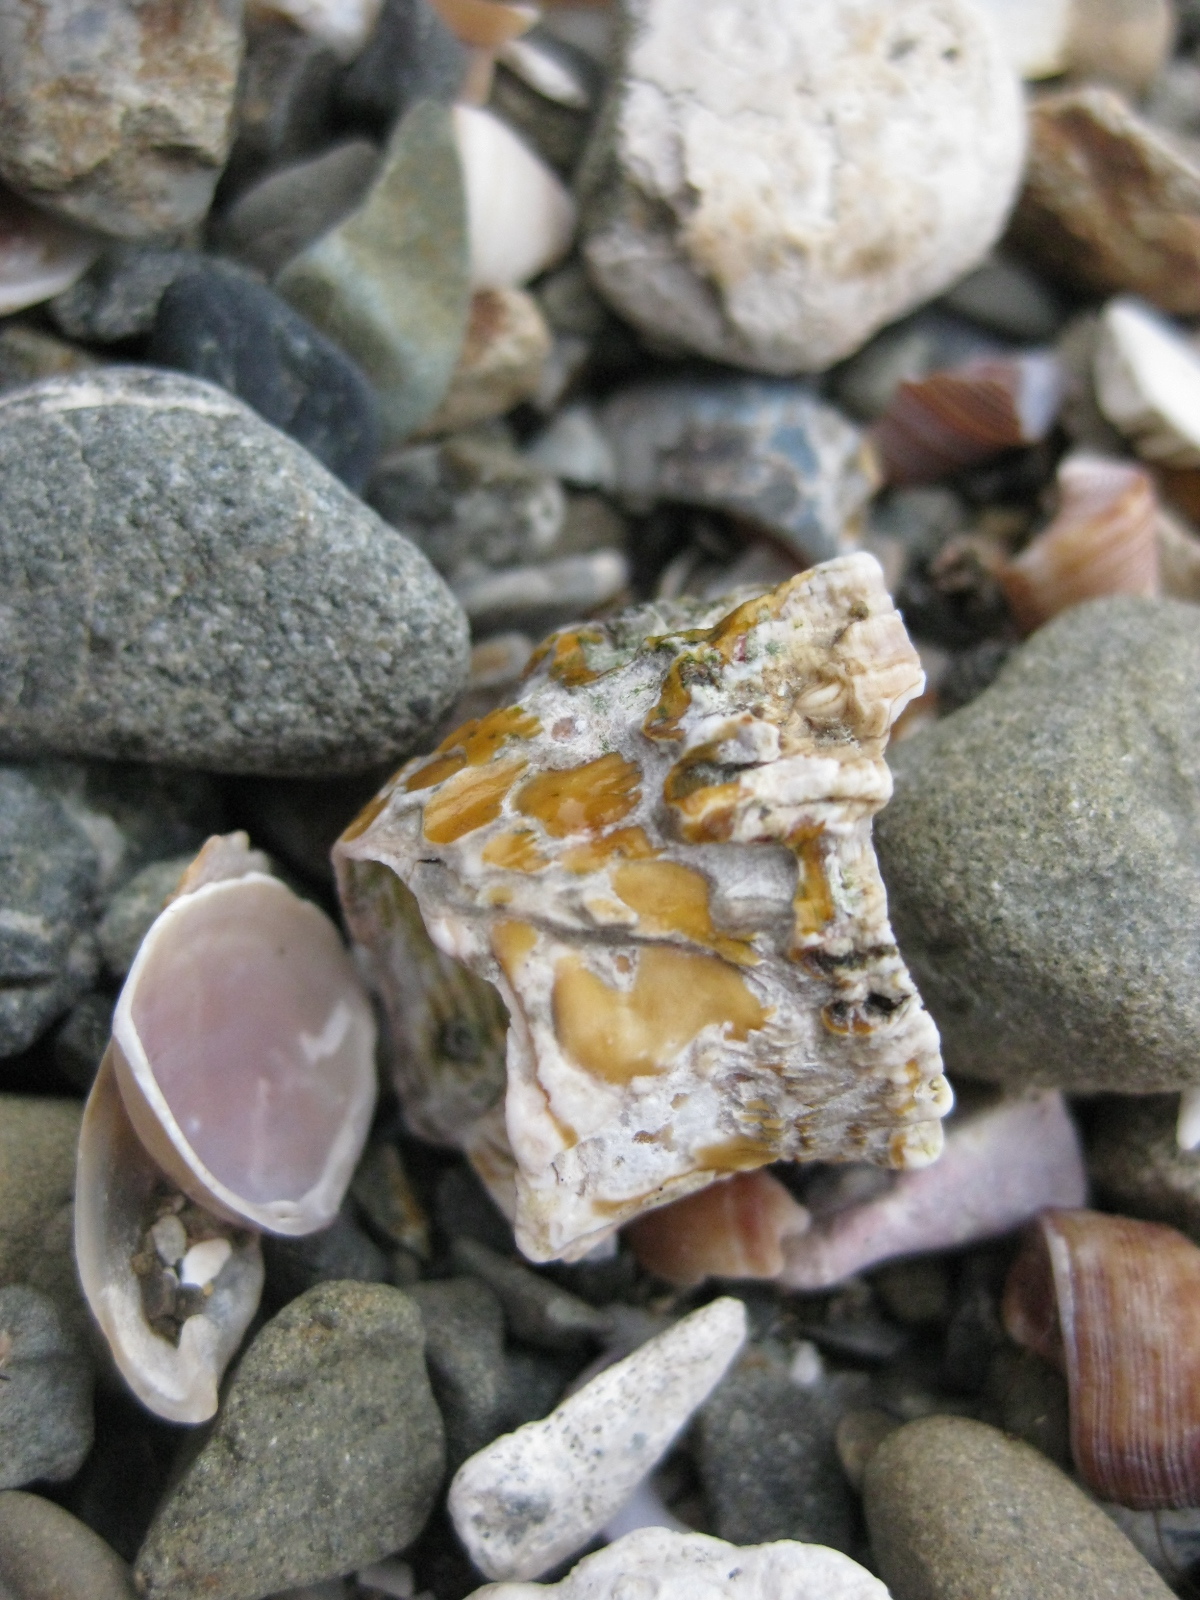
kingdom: Animalia
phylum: Arthropoda
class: Maxillopoda
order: Sessilia
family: Tetraclitidae
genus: Epopella
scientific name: Epopella plicata
